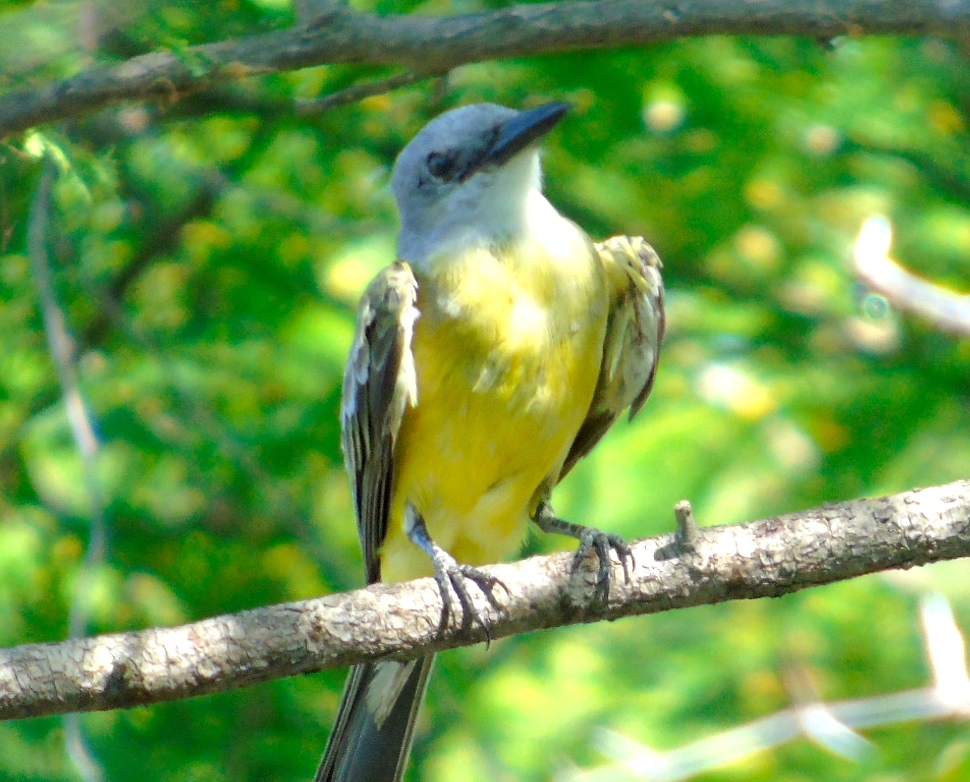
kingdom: Animalia
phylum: Chordata
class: Aves
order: Passeriformes
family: Tyrannidae
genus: Tyrannus
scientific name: Tyrannus melancholicus
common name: Tropical kingbird
